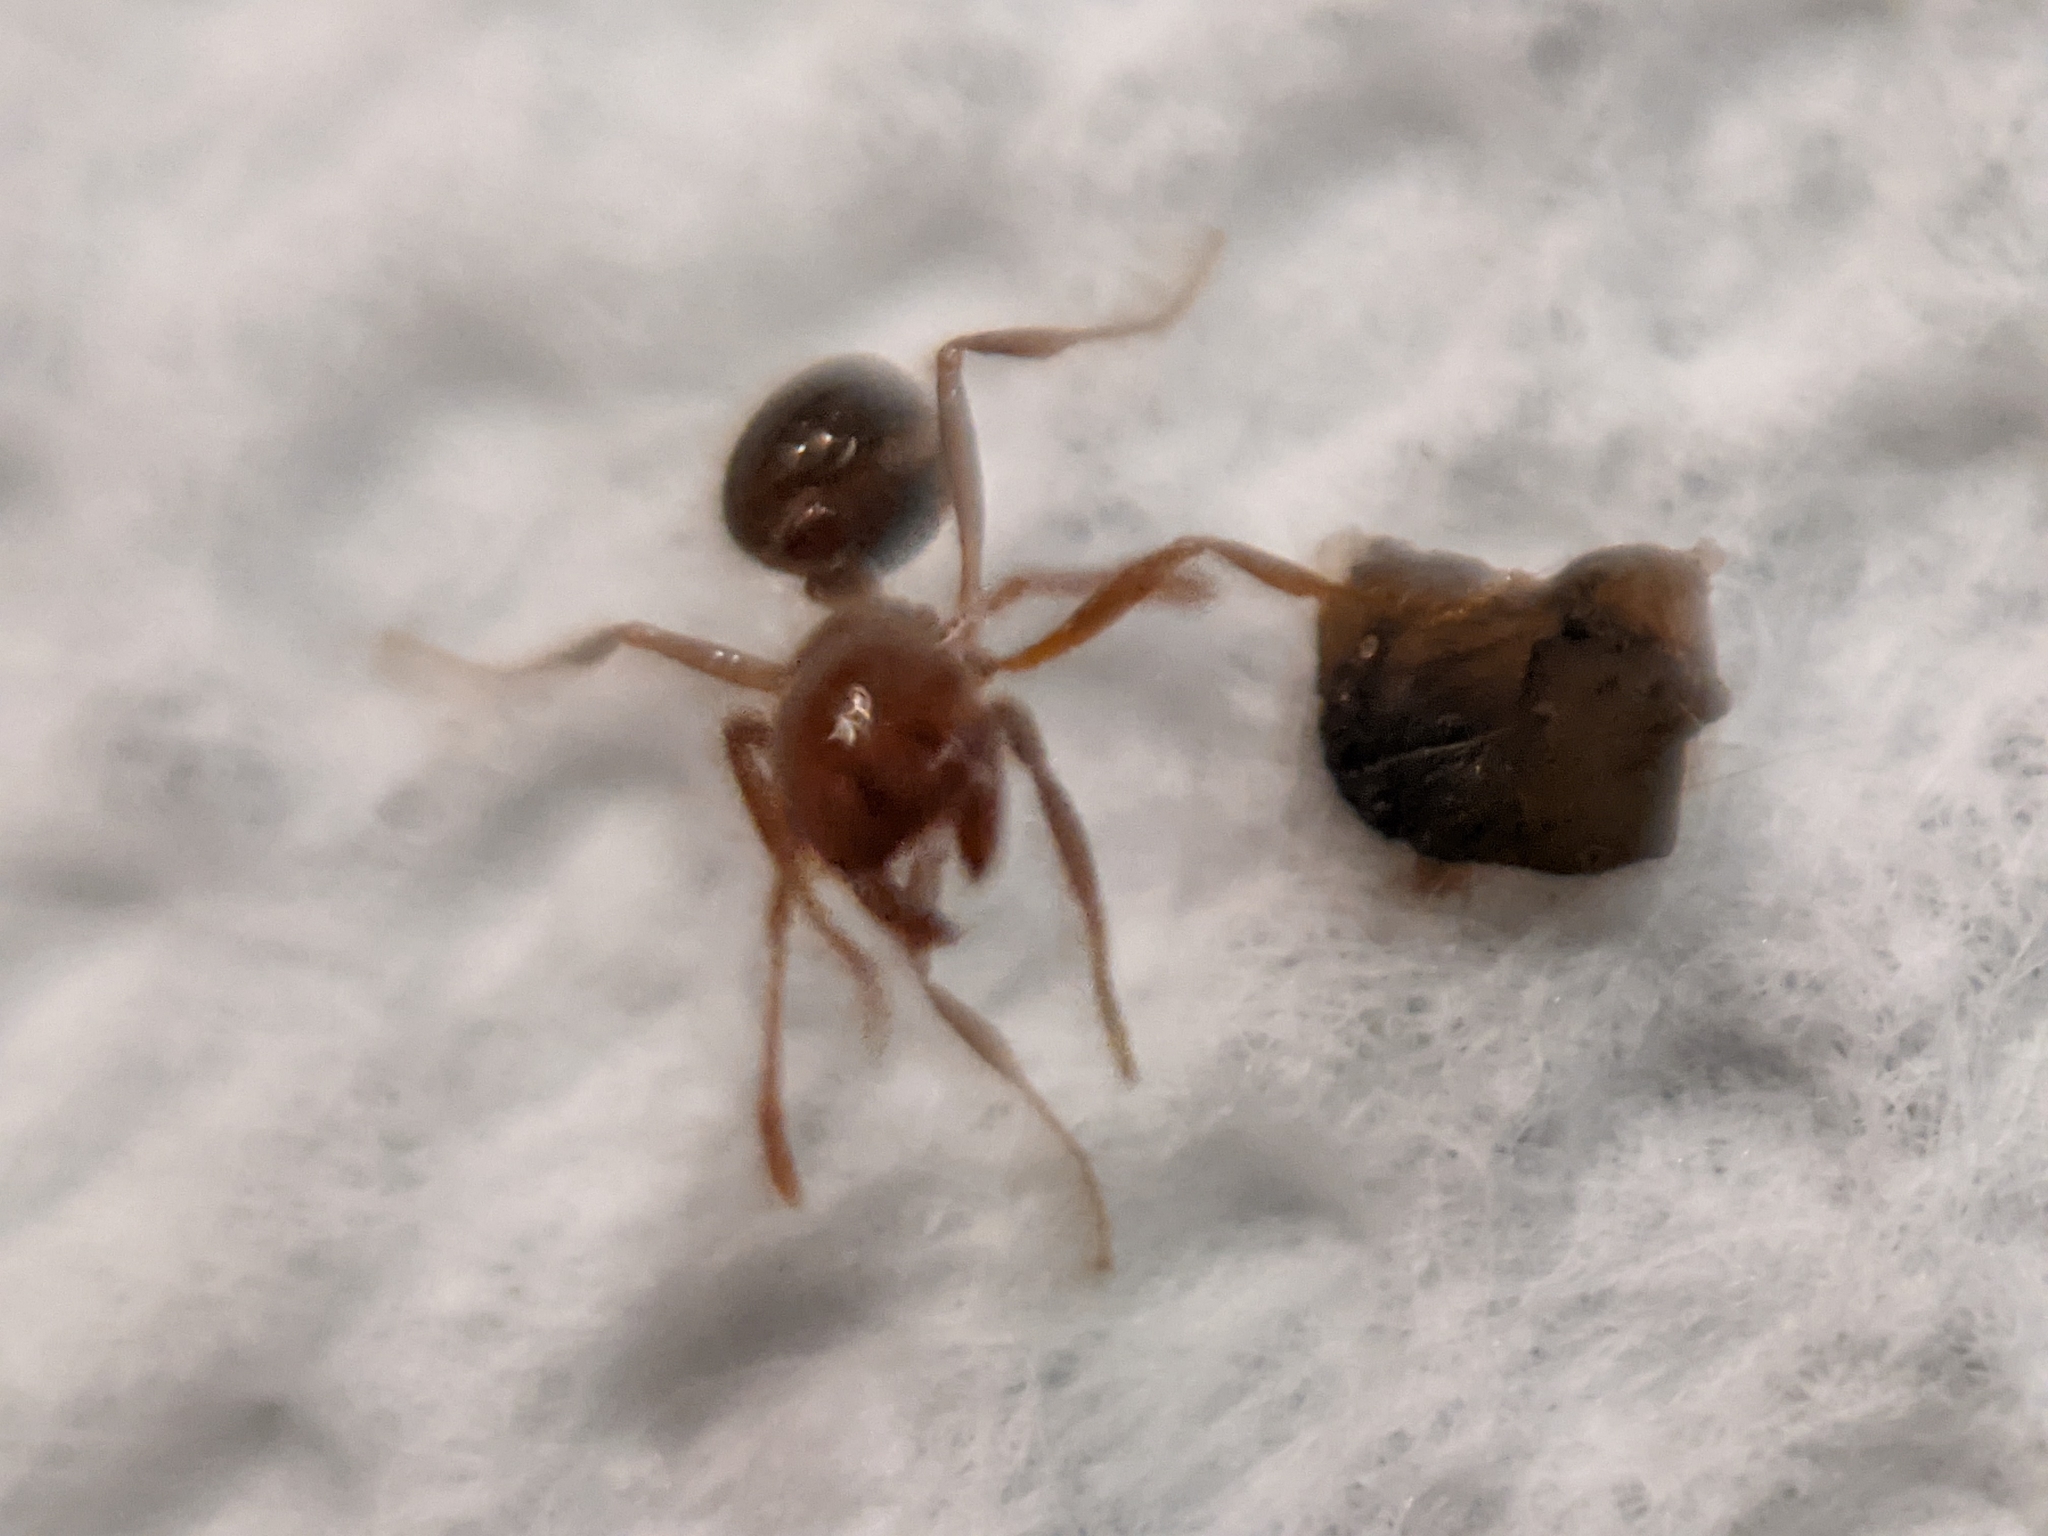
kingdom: Animalia
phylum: Arthropoda
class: Insecta
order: Hymenoptera
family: Formicidae
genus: Solenopsis
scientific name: Solenopsis invicta
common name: Red imported fire ant
